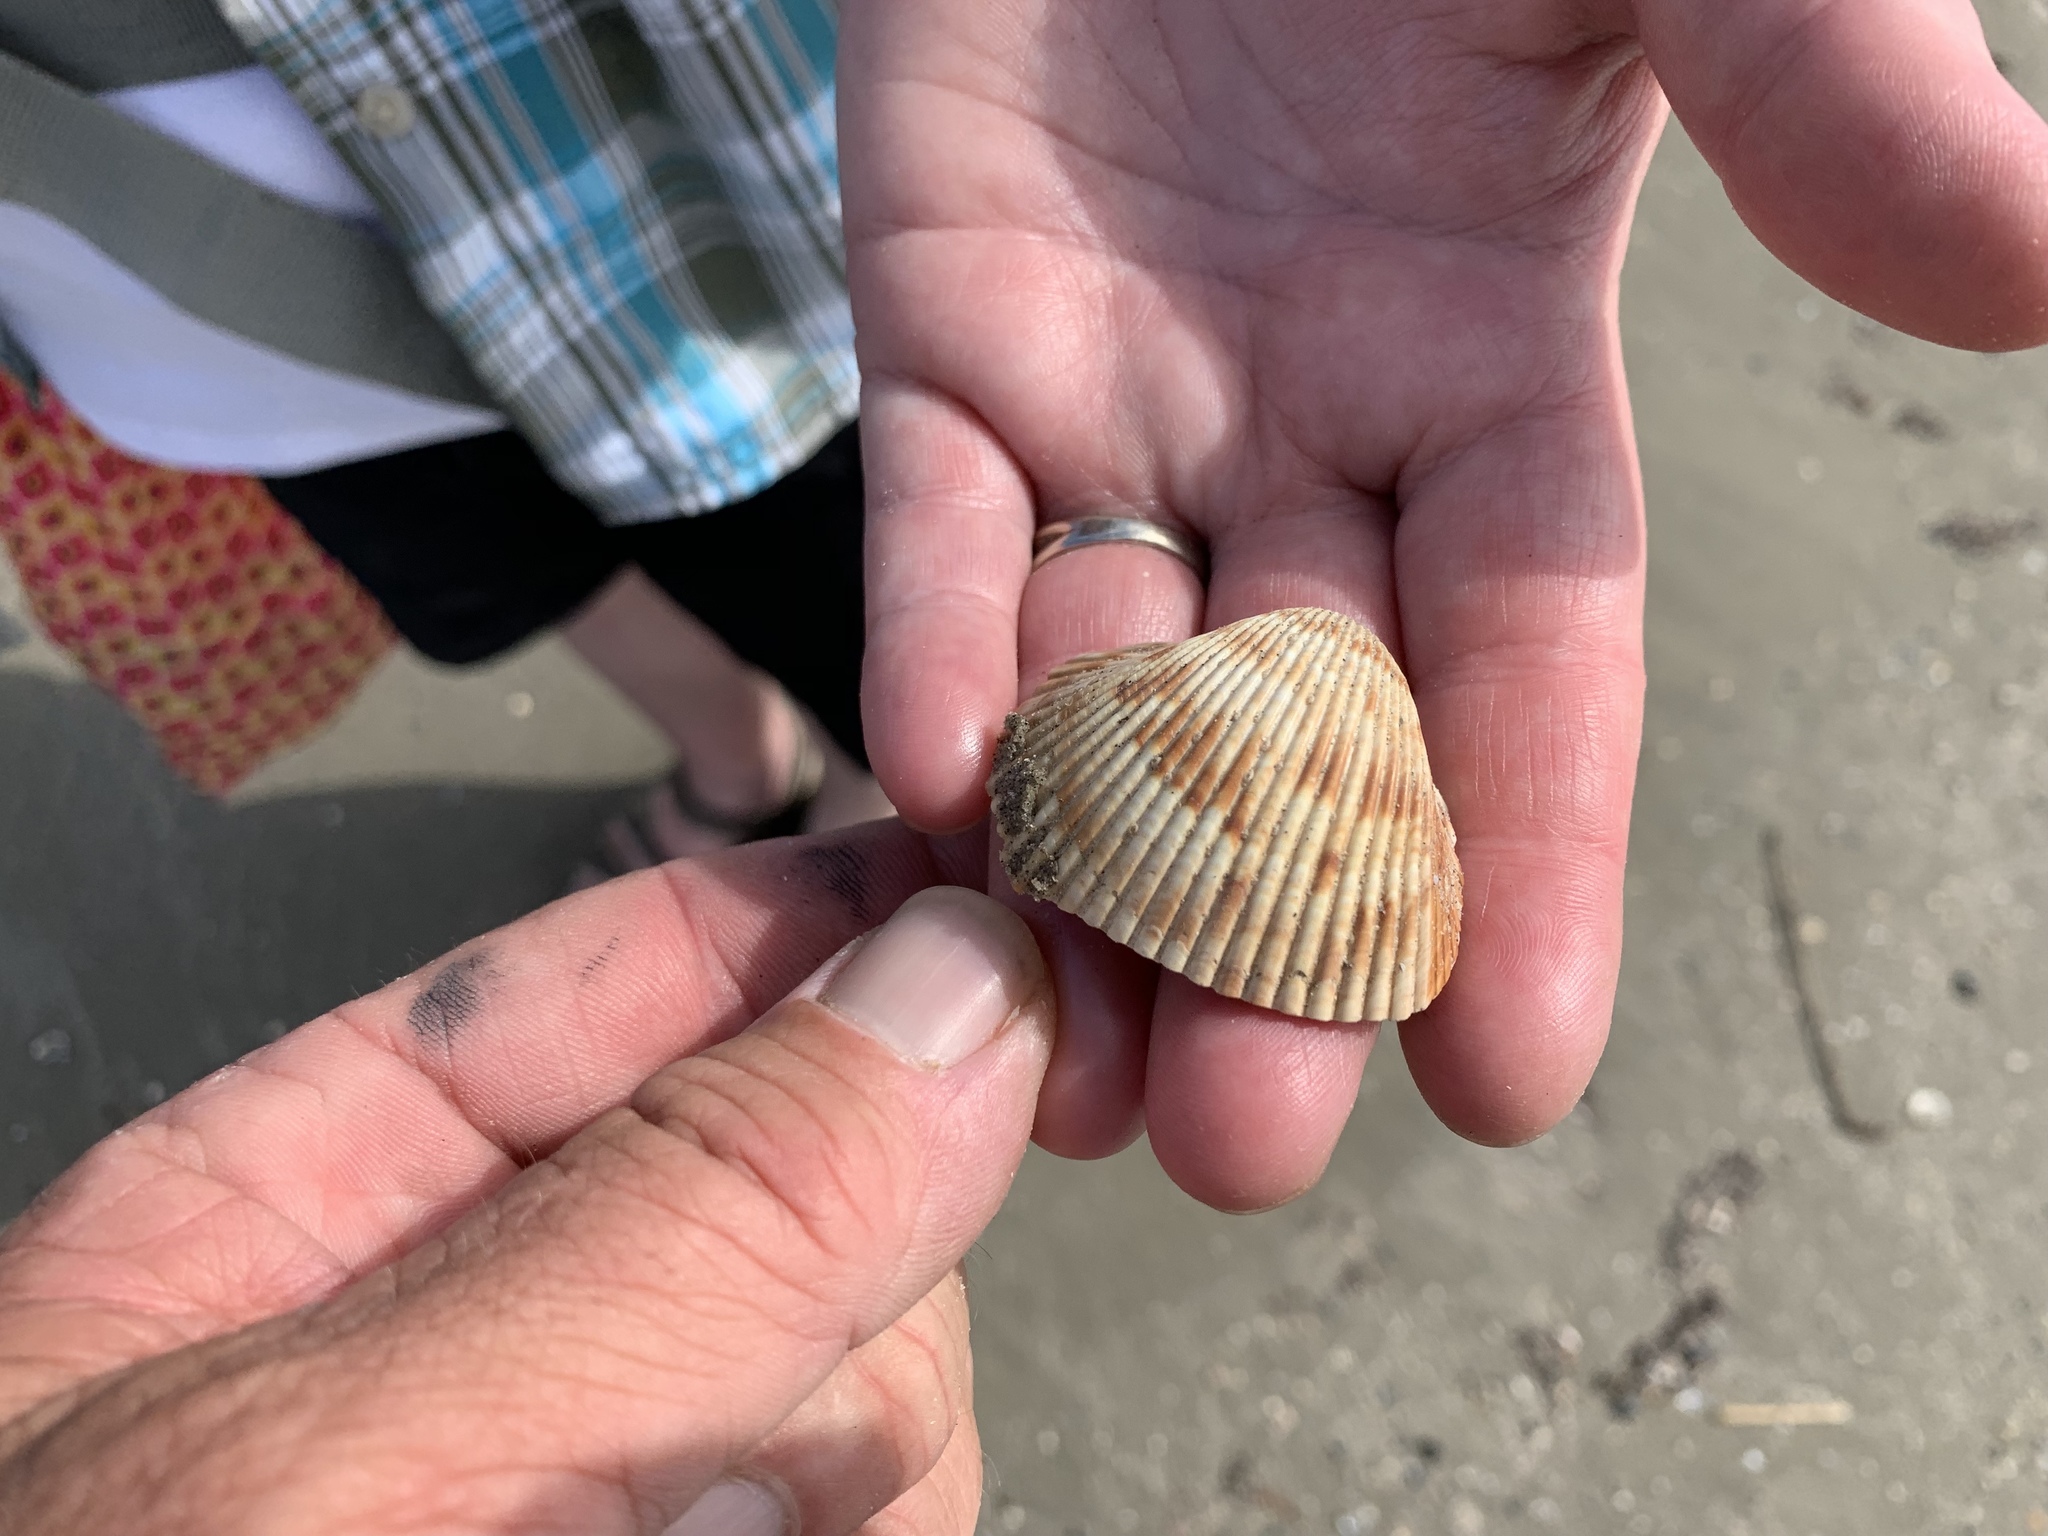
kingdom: Animalia
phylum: Mollusca
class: Bivalvia
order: Cardiida
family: Cardiidae
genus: Dinocardium
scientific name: Dinocardium robustum
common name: Atlantic giant cockle
